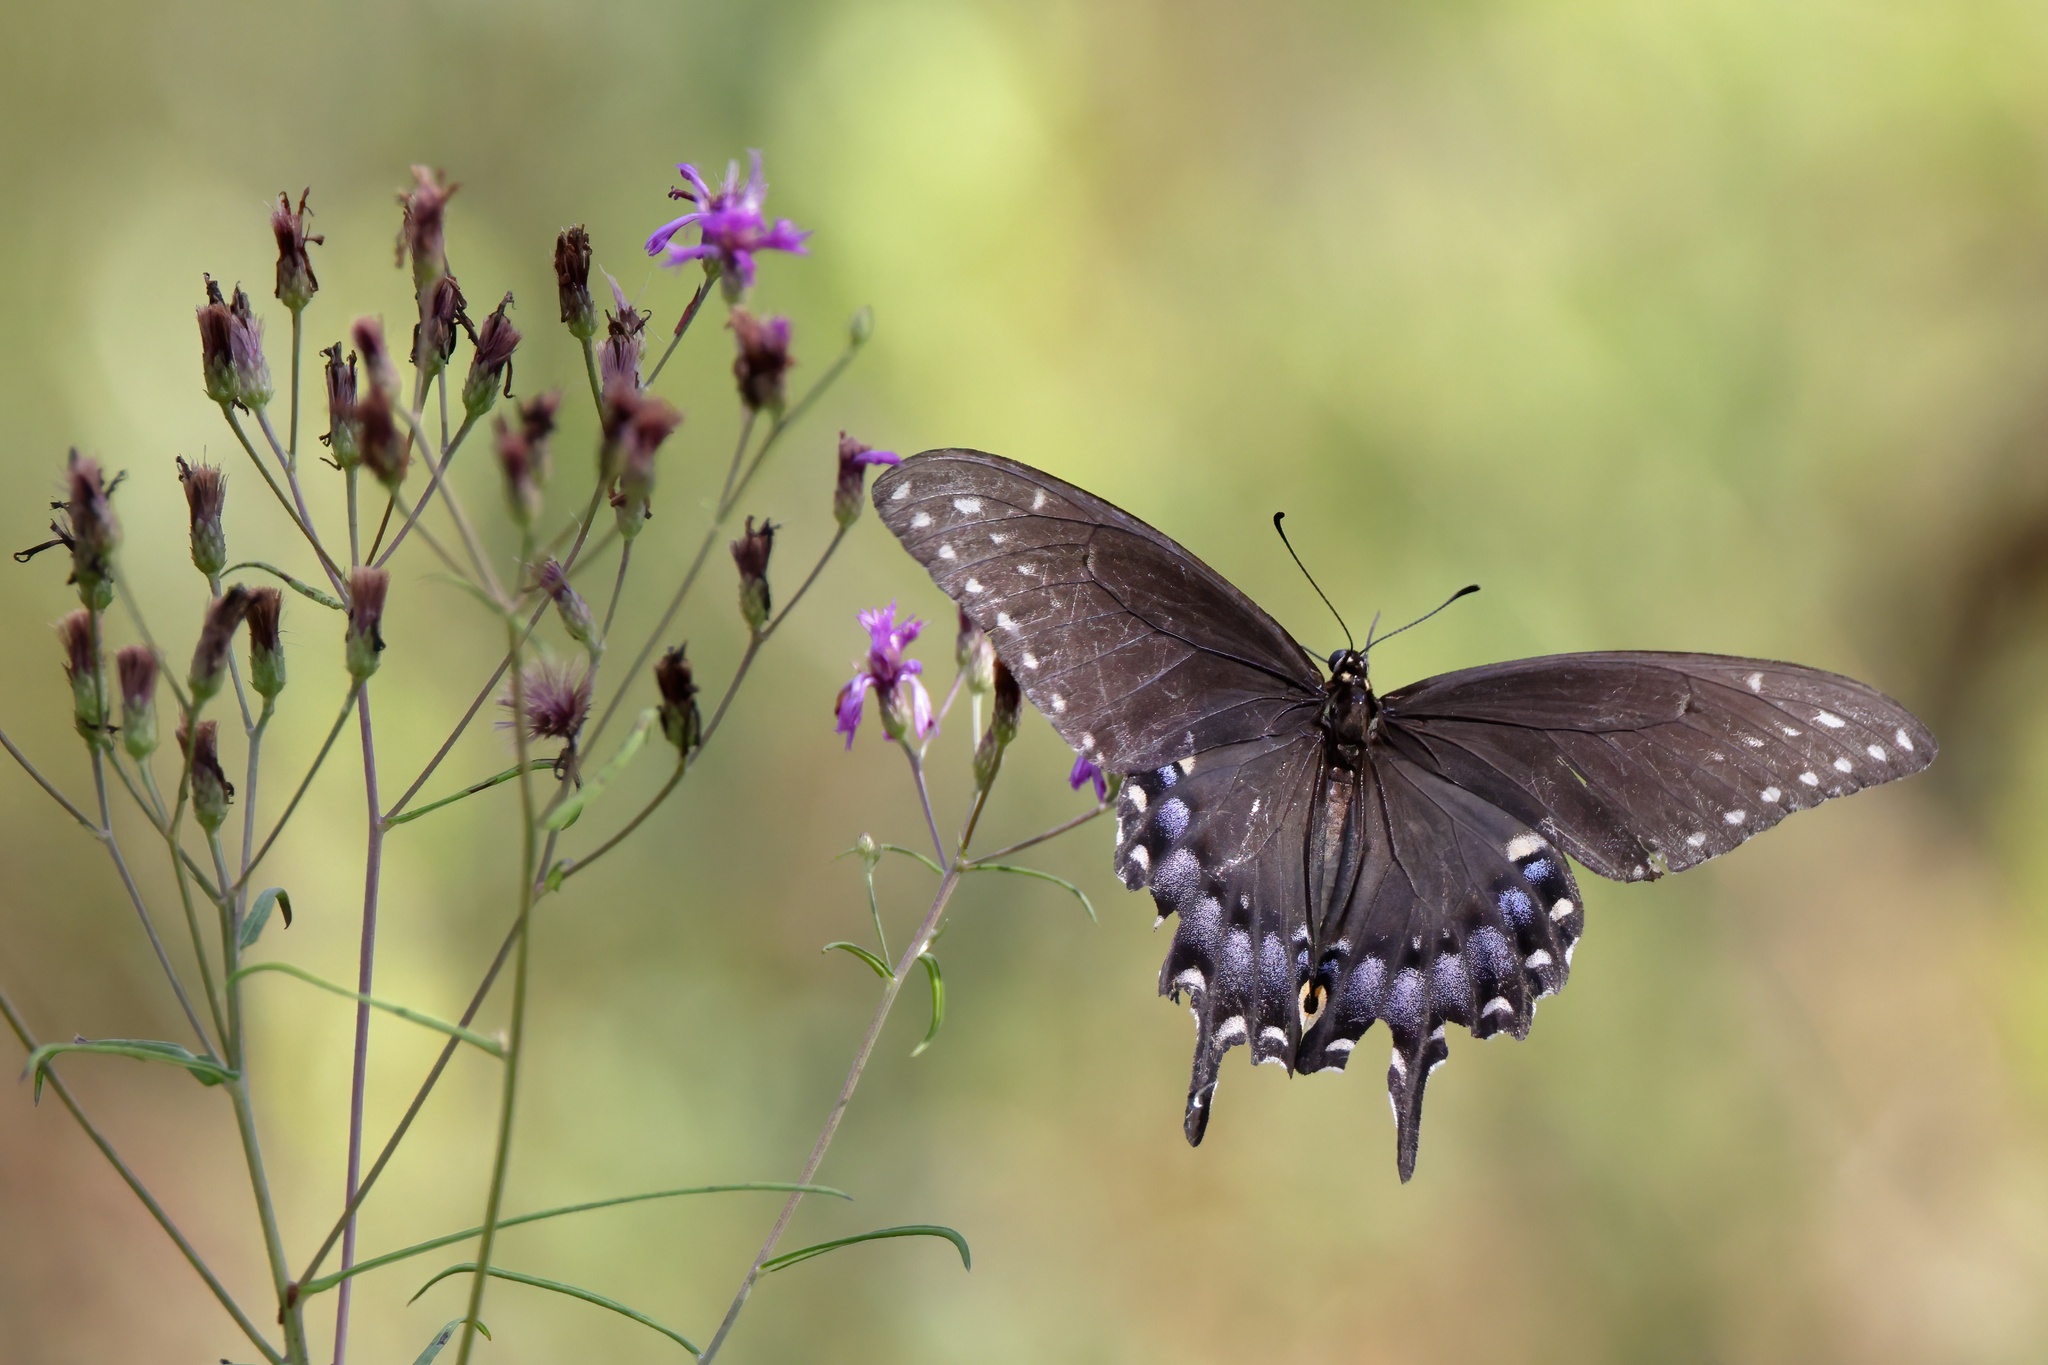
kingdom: Animalia
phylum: Arthropoda
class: Insecta
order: Lepidoptera
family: Papilionidae
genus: Papilio
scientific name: Papilio polyxenes
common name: Black swallowtail
